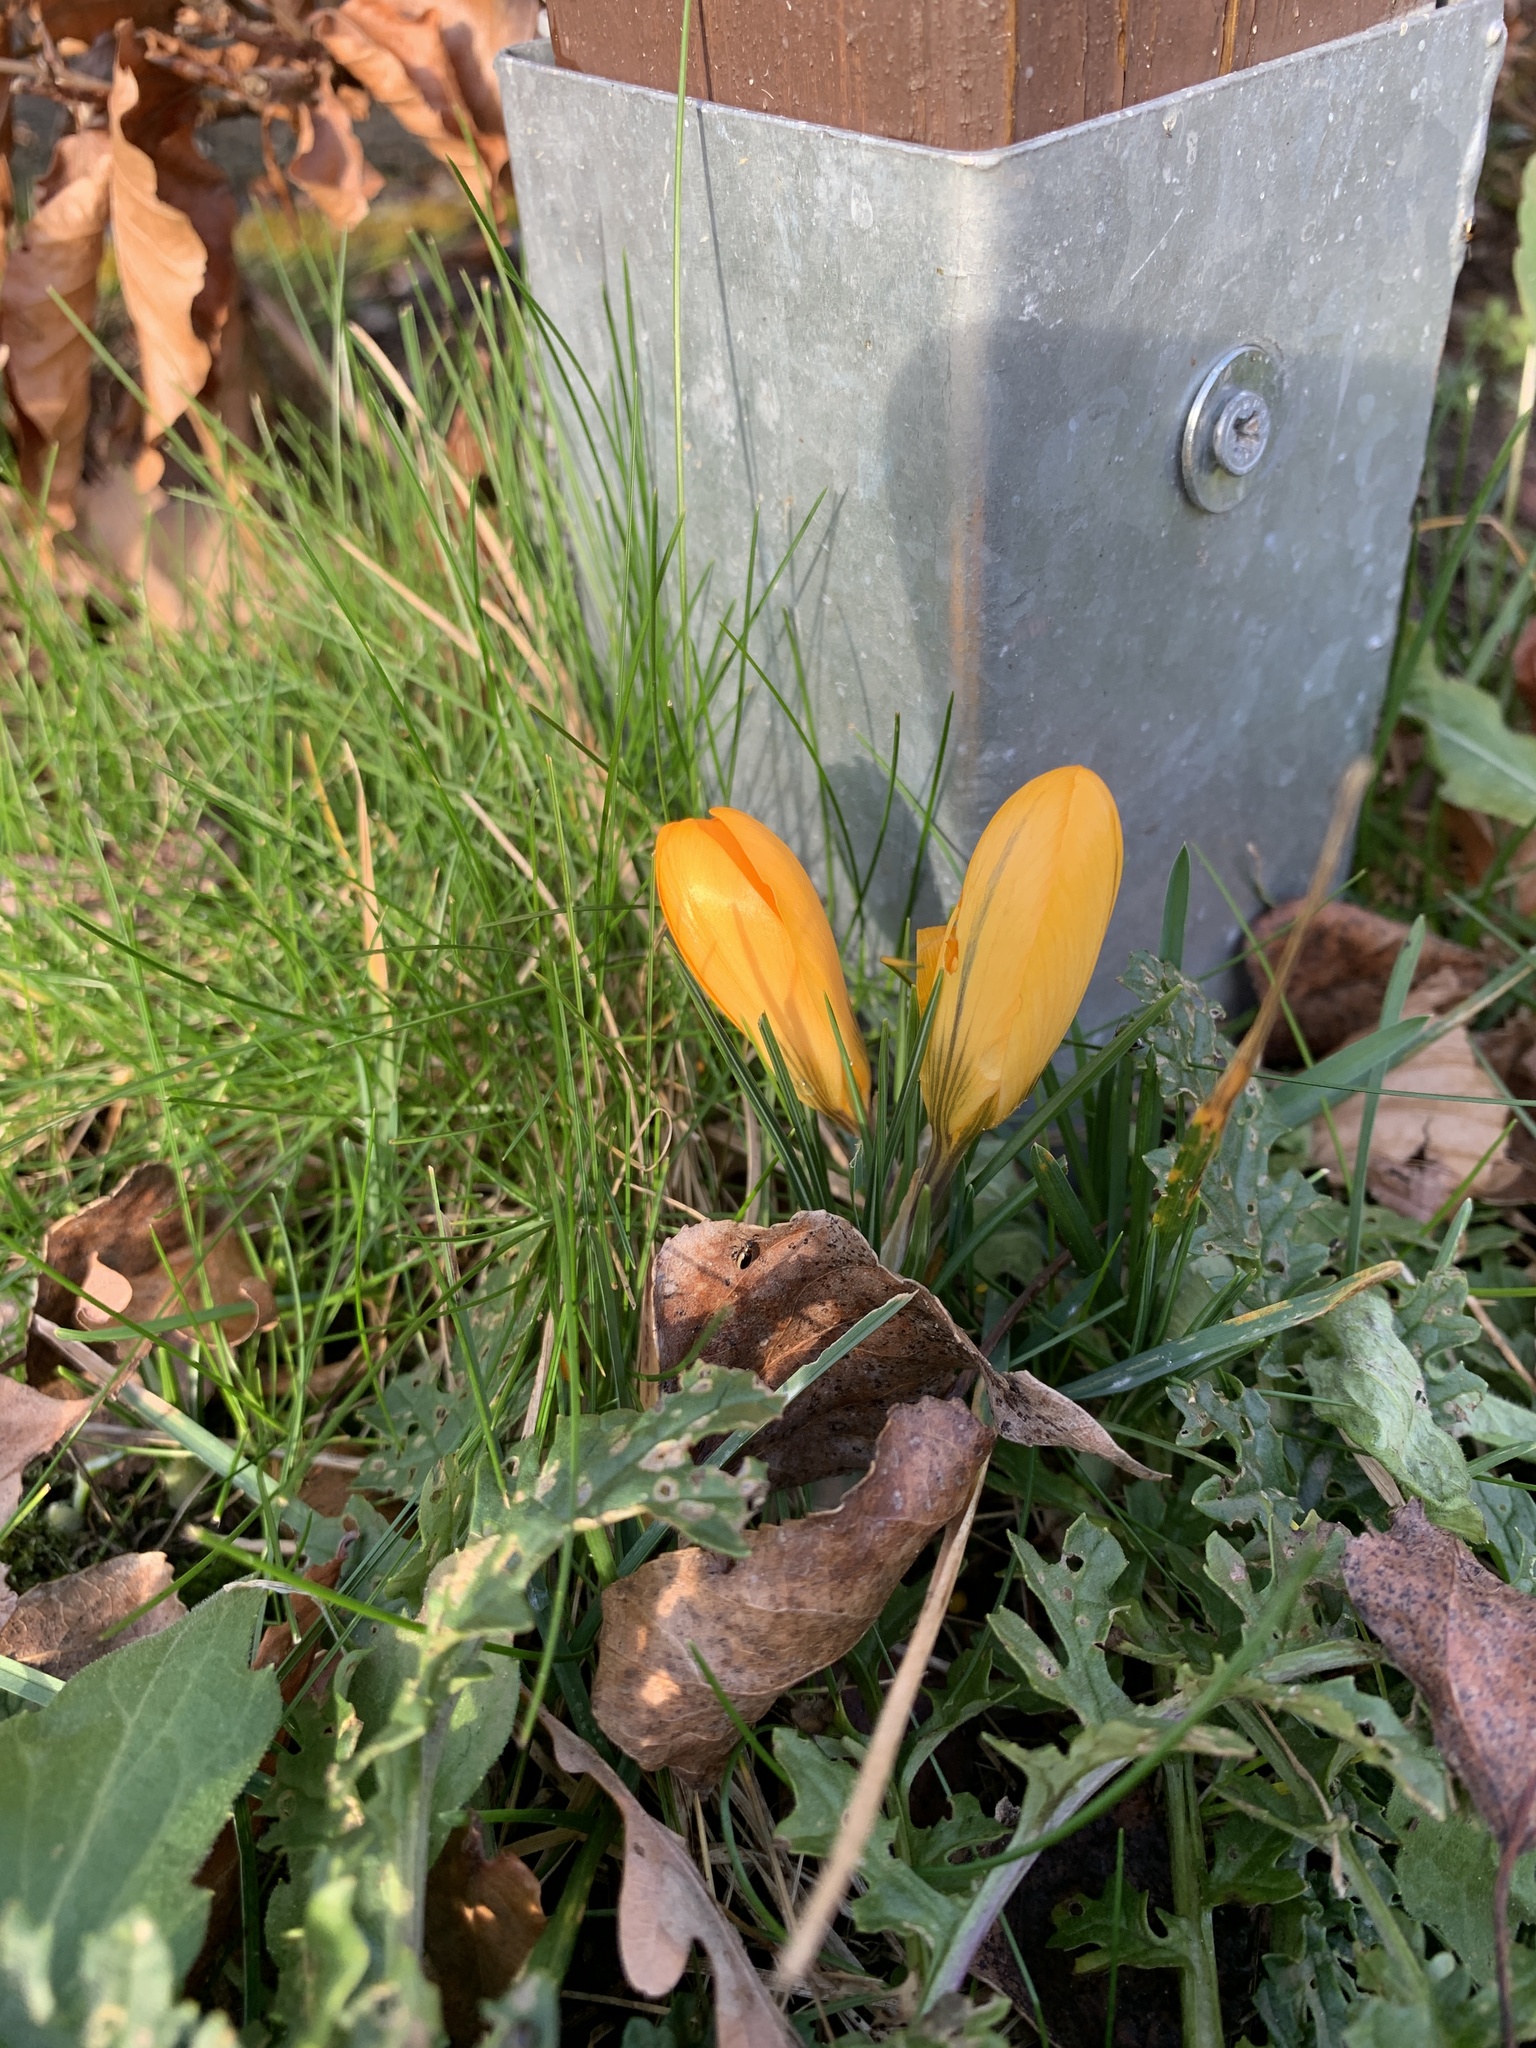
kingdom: Plantae
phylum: Tracheophyta
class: Liliopsida
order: Asparagales
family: Iridaceae
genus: Crocus
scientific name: Crocus luteus
